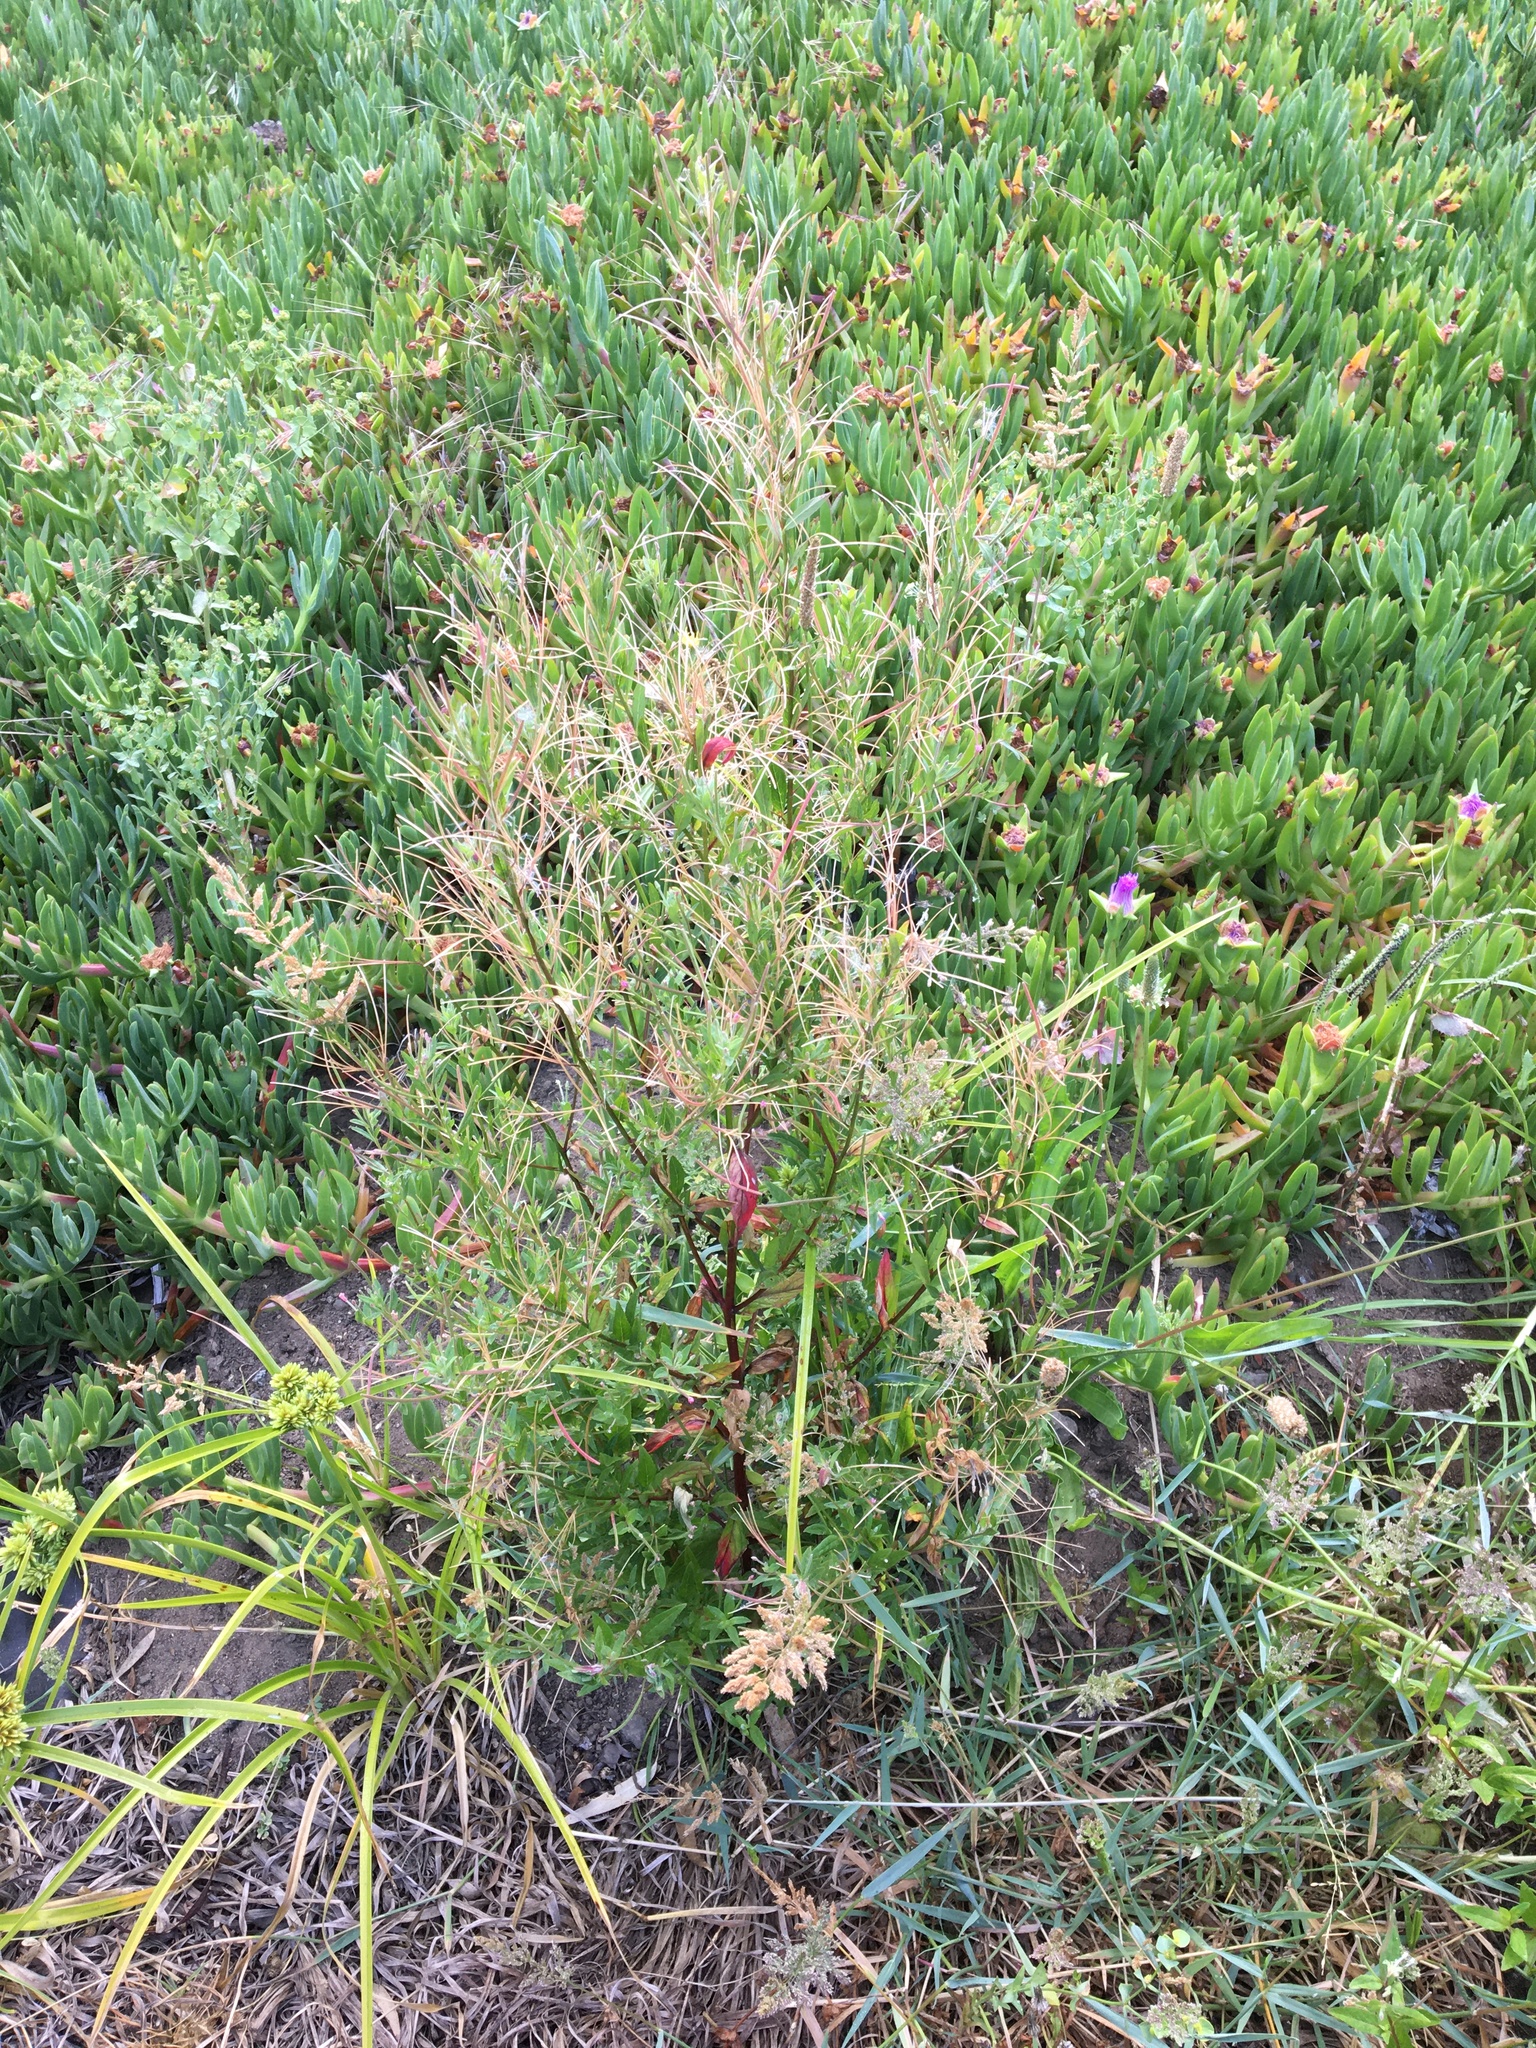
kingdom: Plantae
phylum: Tracheophyta
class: Magnoliopsida
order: Myrtales
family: Onagraceae
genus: Epilobium
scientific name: Epilobium ciliatum
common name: American willowherb
